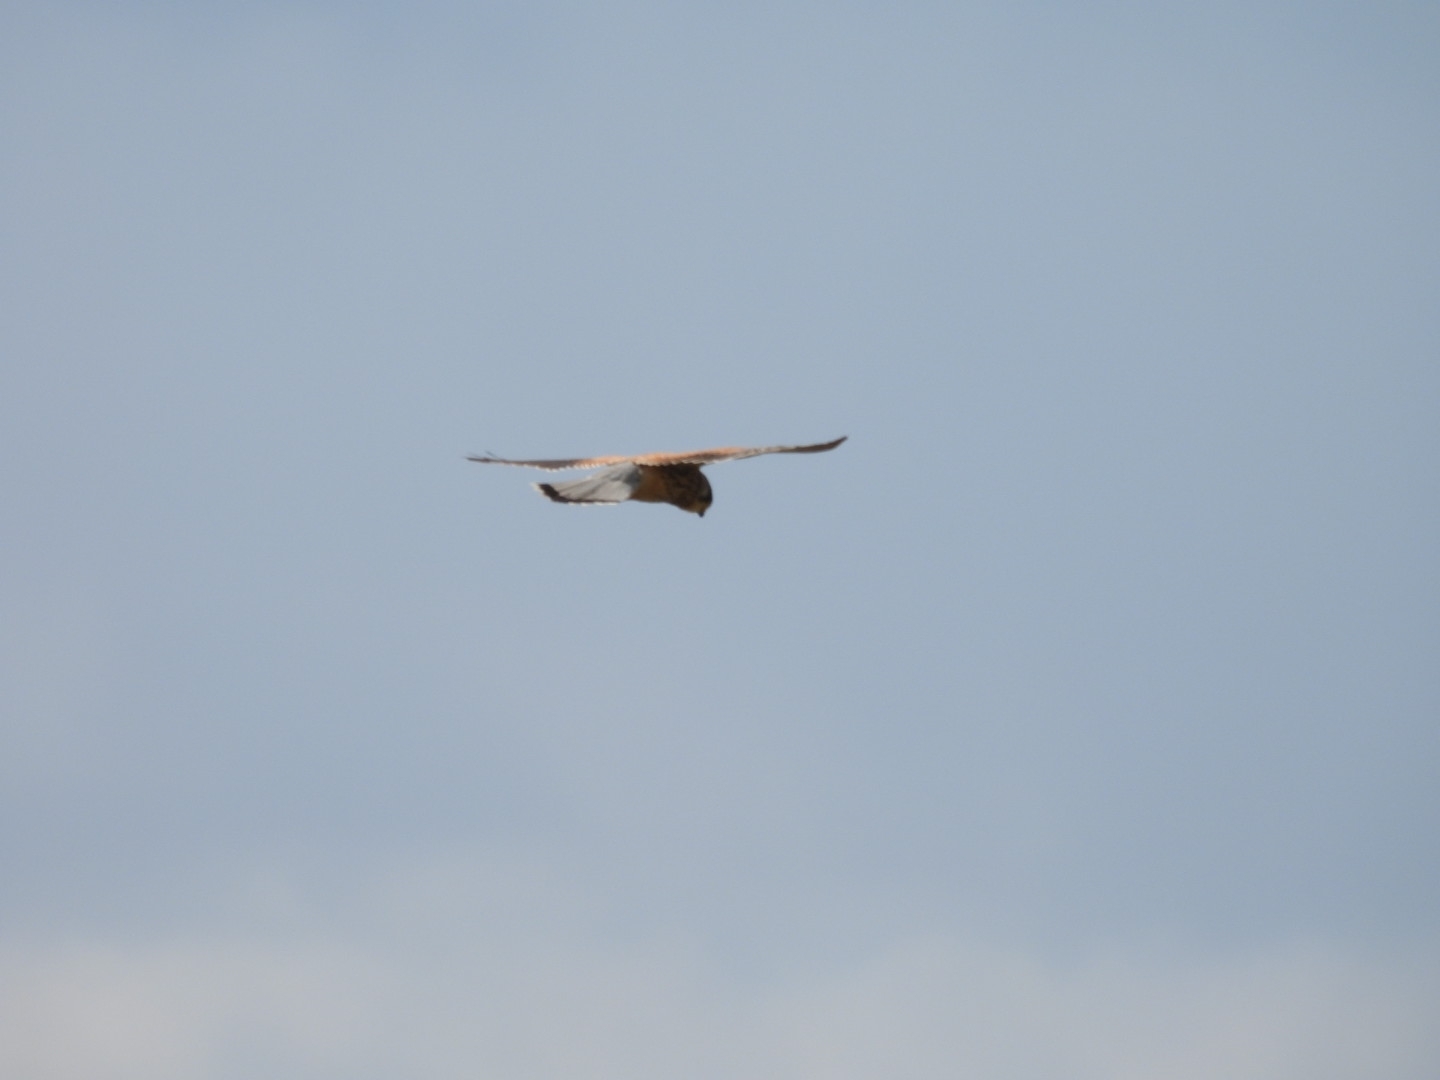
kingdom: Animalia
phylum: Chordata
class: Aves
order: Falconiformes
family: Falconidae
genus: Falco
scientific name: Falco tinnunculus
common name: Common kestrel
